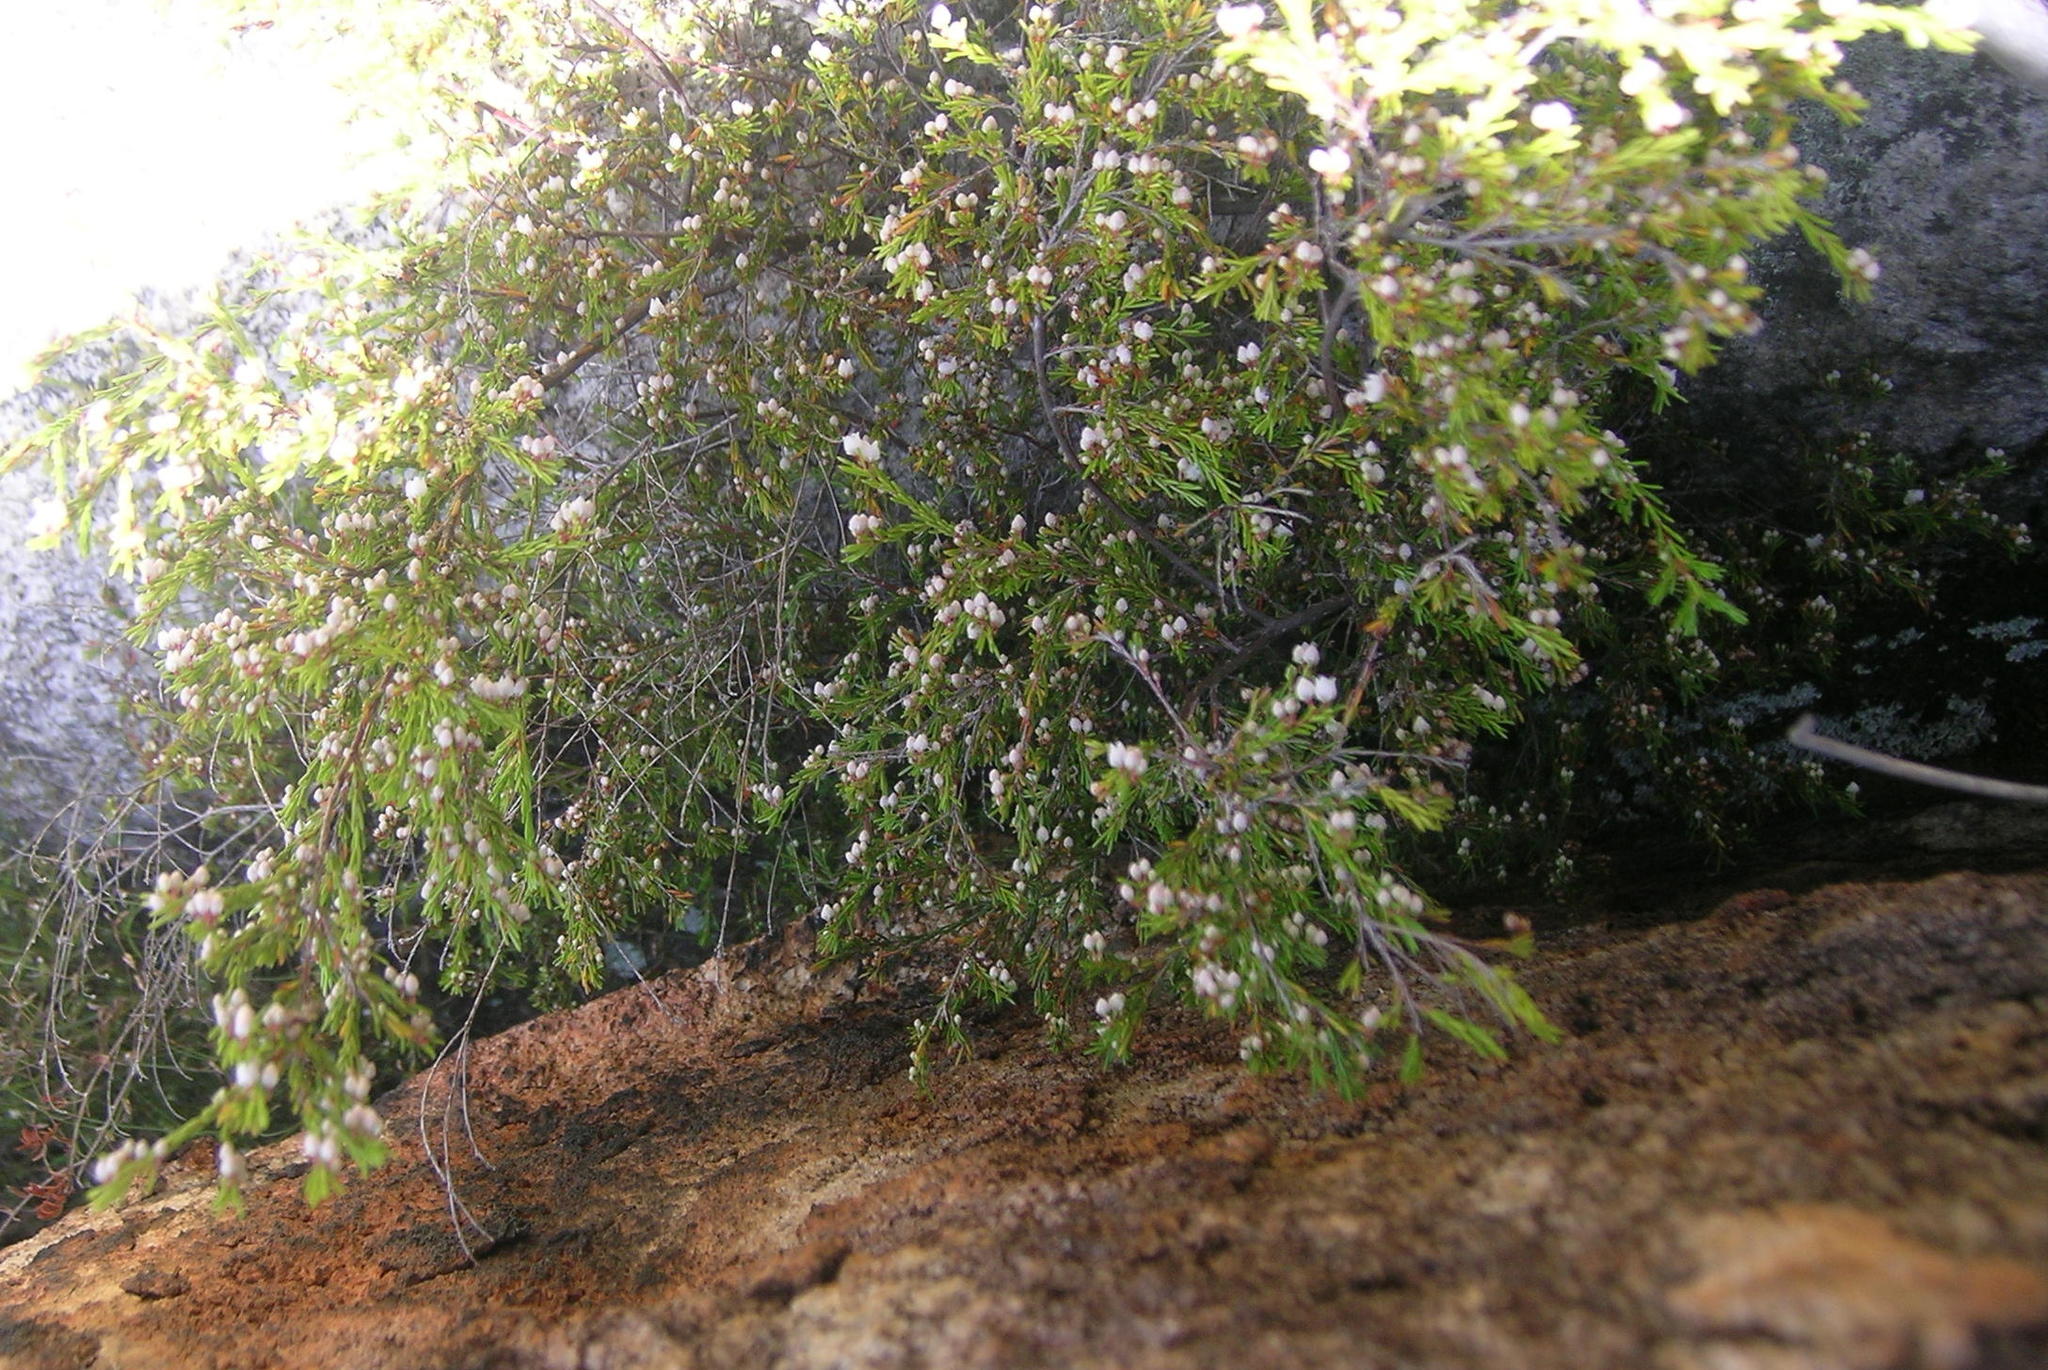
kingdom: Plantae
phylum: Tracheophyta
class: Magnoliopsida
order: Ericales
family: Ericaceae
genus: Erica
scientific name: Erica tenuis
